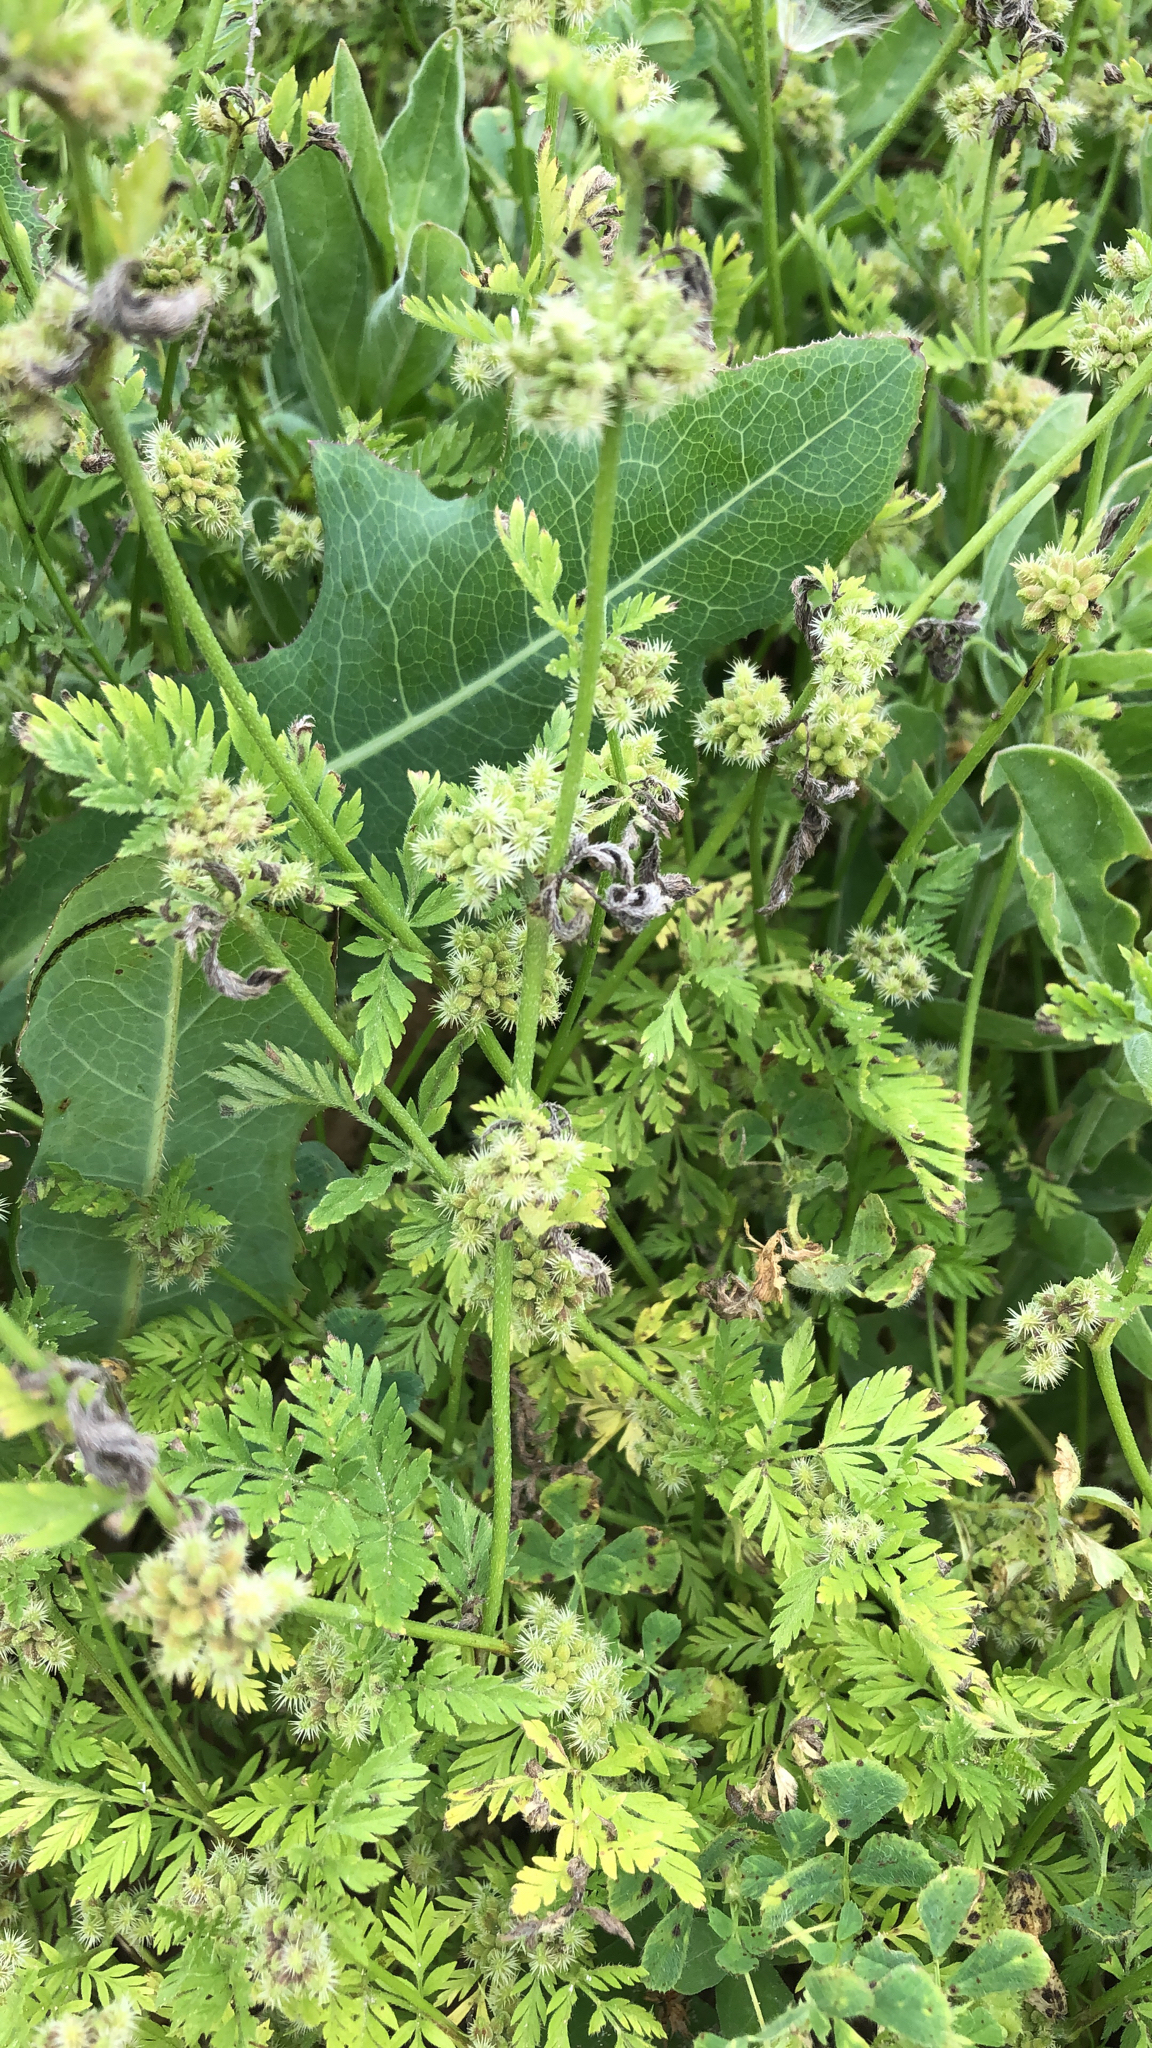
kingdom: Plantae
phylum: Tracheophyta
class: Magnoliopsida
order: Apiales
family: Apiaceae
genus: Torilis
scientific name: Torilis nodosa
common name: Knotted hedge-parsley
